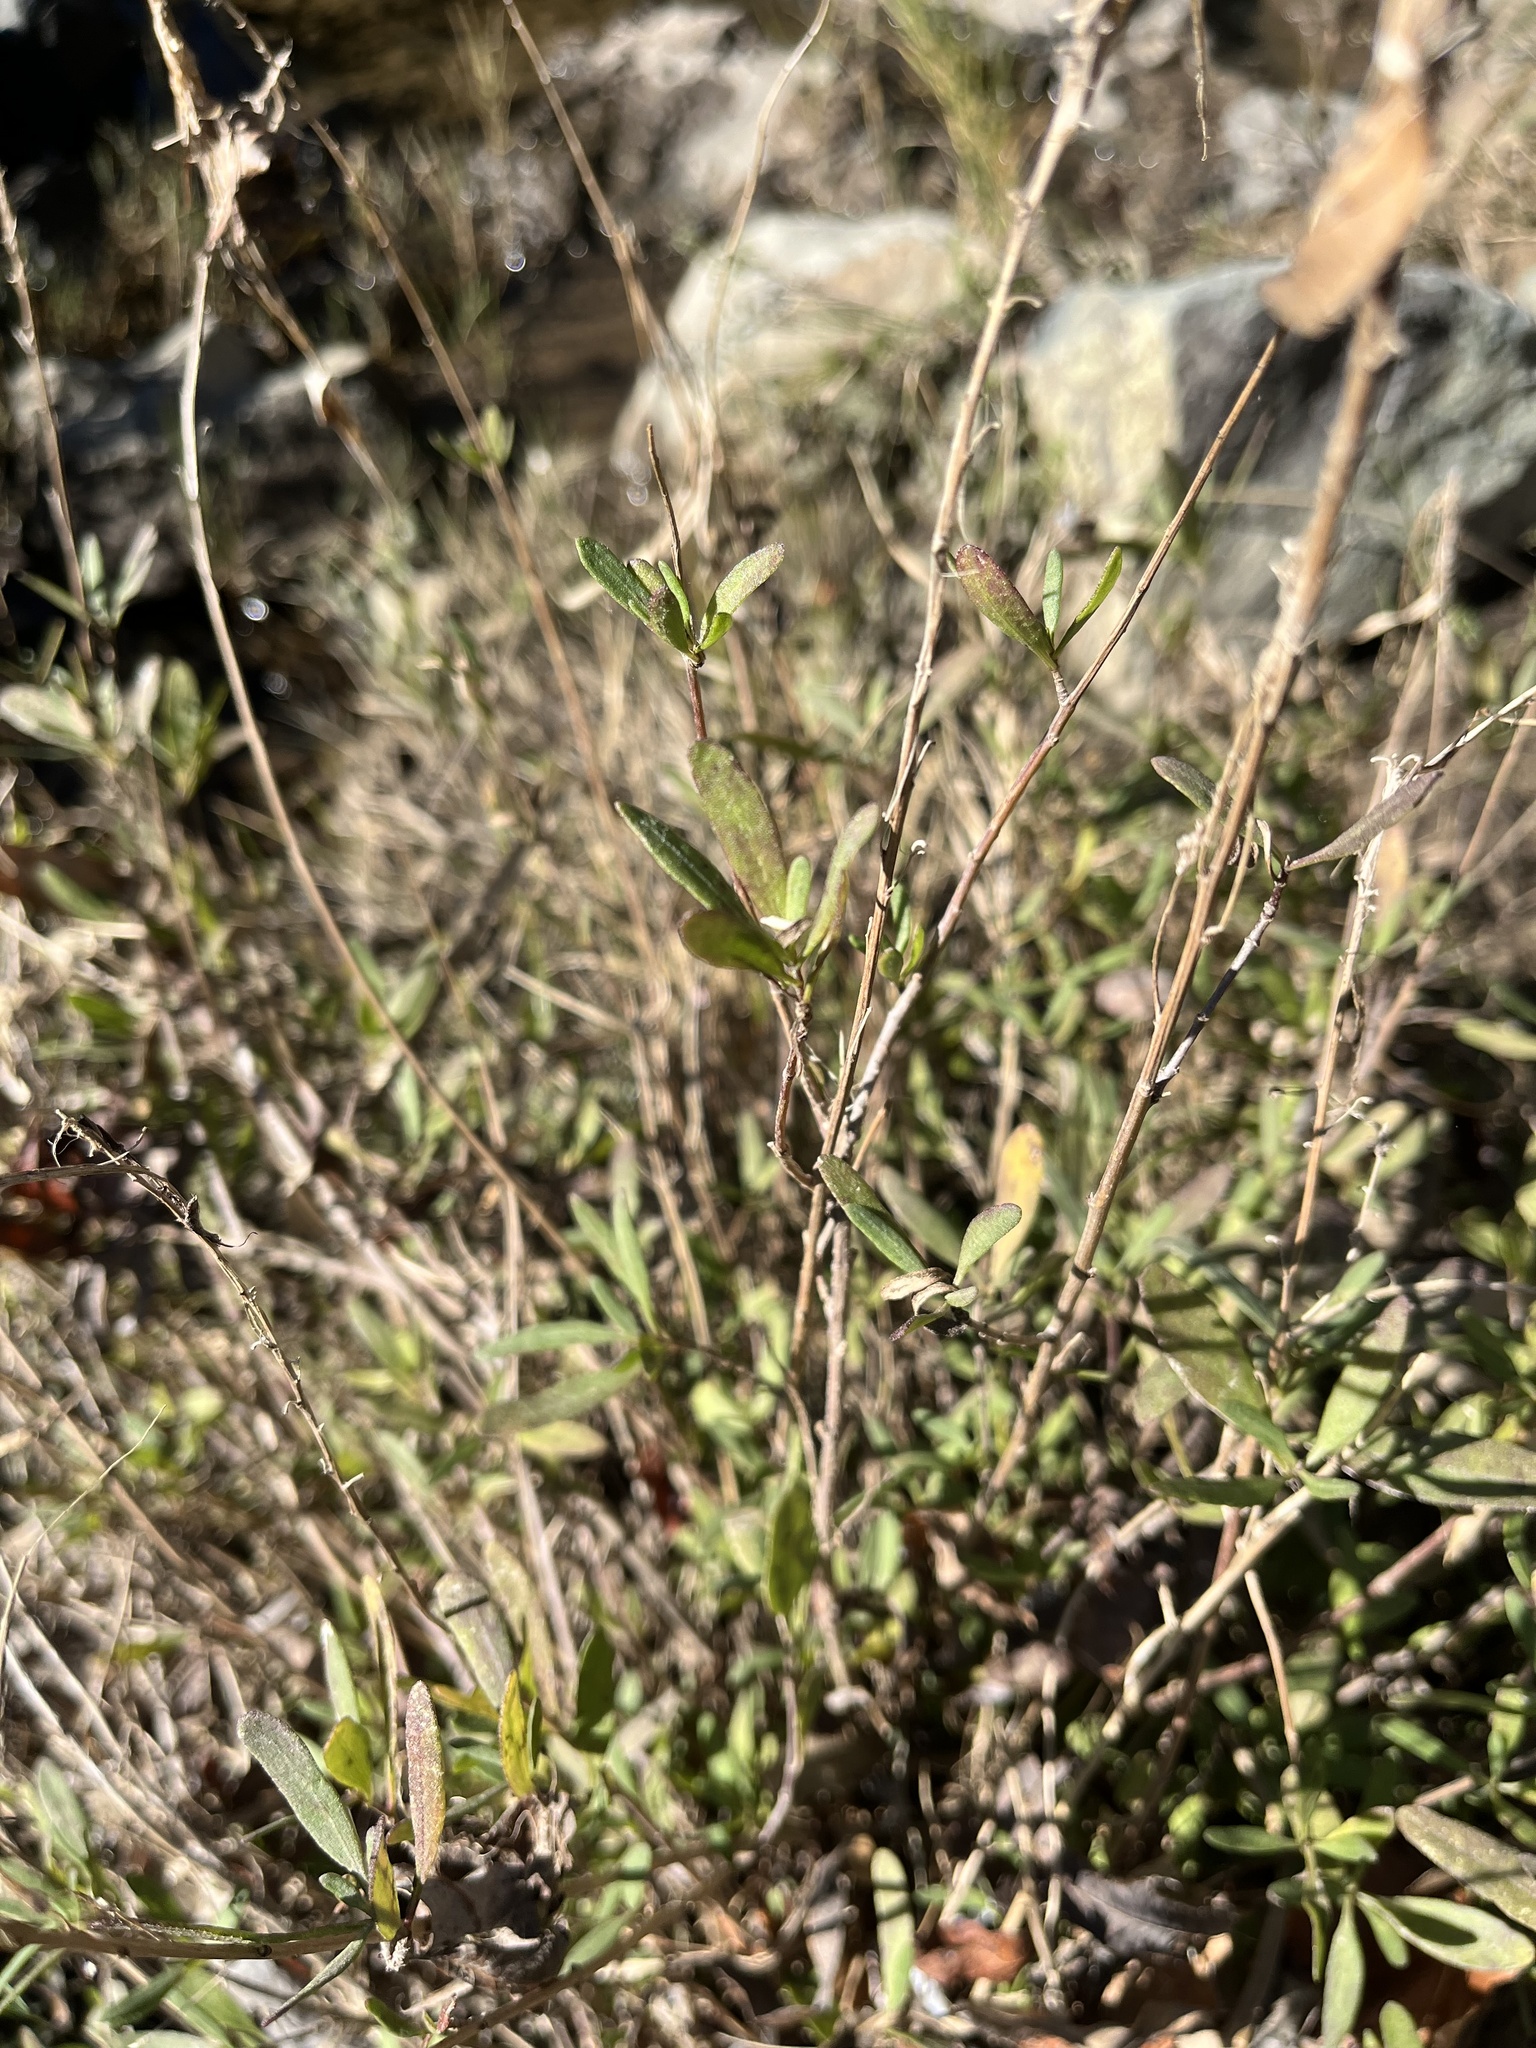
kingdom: Plantae
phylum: Tracheophyta
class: Magnoliopsida
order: Asterales
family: Asteraceae
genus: Iva
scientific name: Iva hayesiana
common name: San diego marsh-elder
